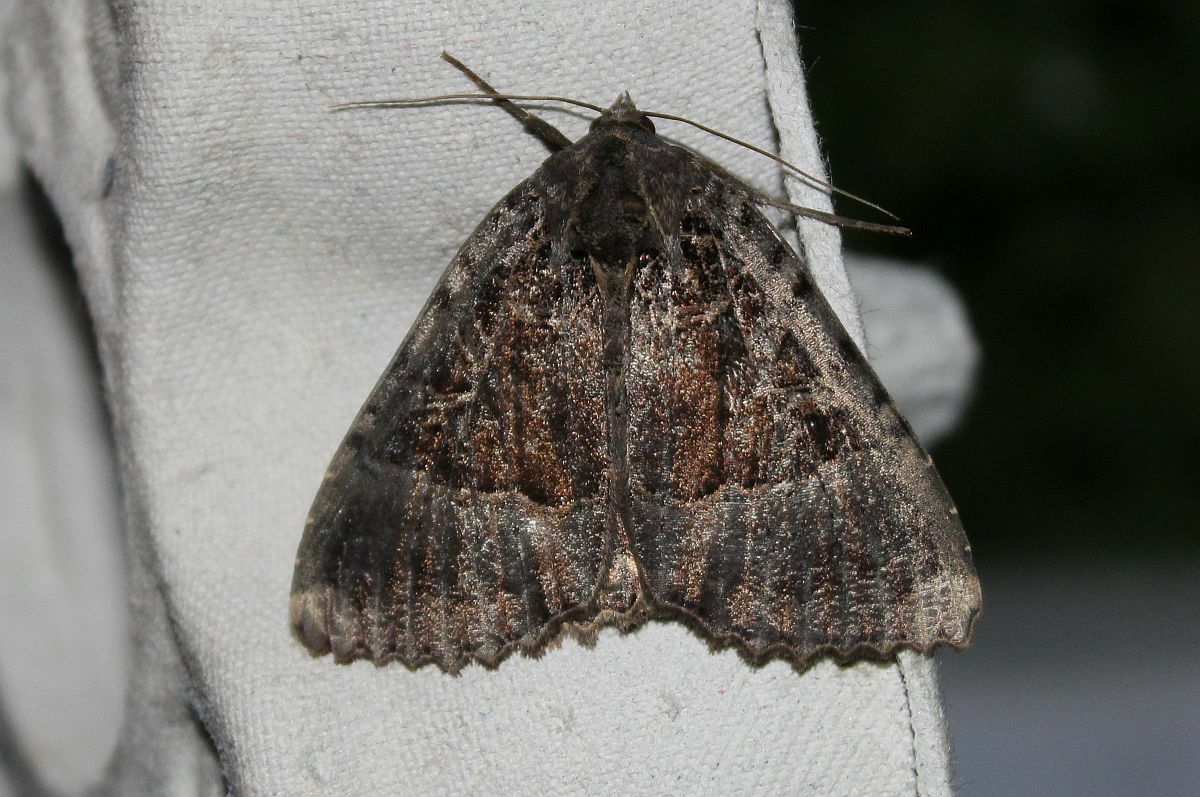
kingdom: Animalia
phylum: Arthropoda
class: Insecta
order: Lepidoptera
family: Noctuidae
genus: Mormo
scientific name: Mormo maura
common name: Old lady
